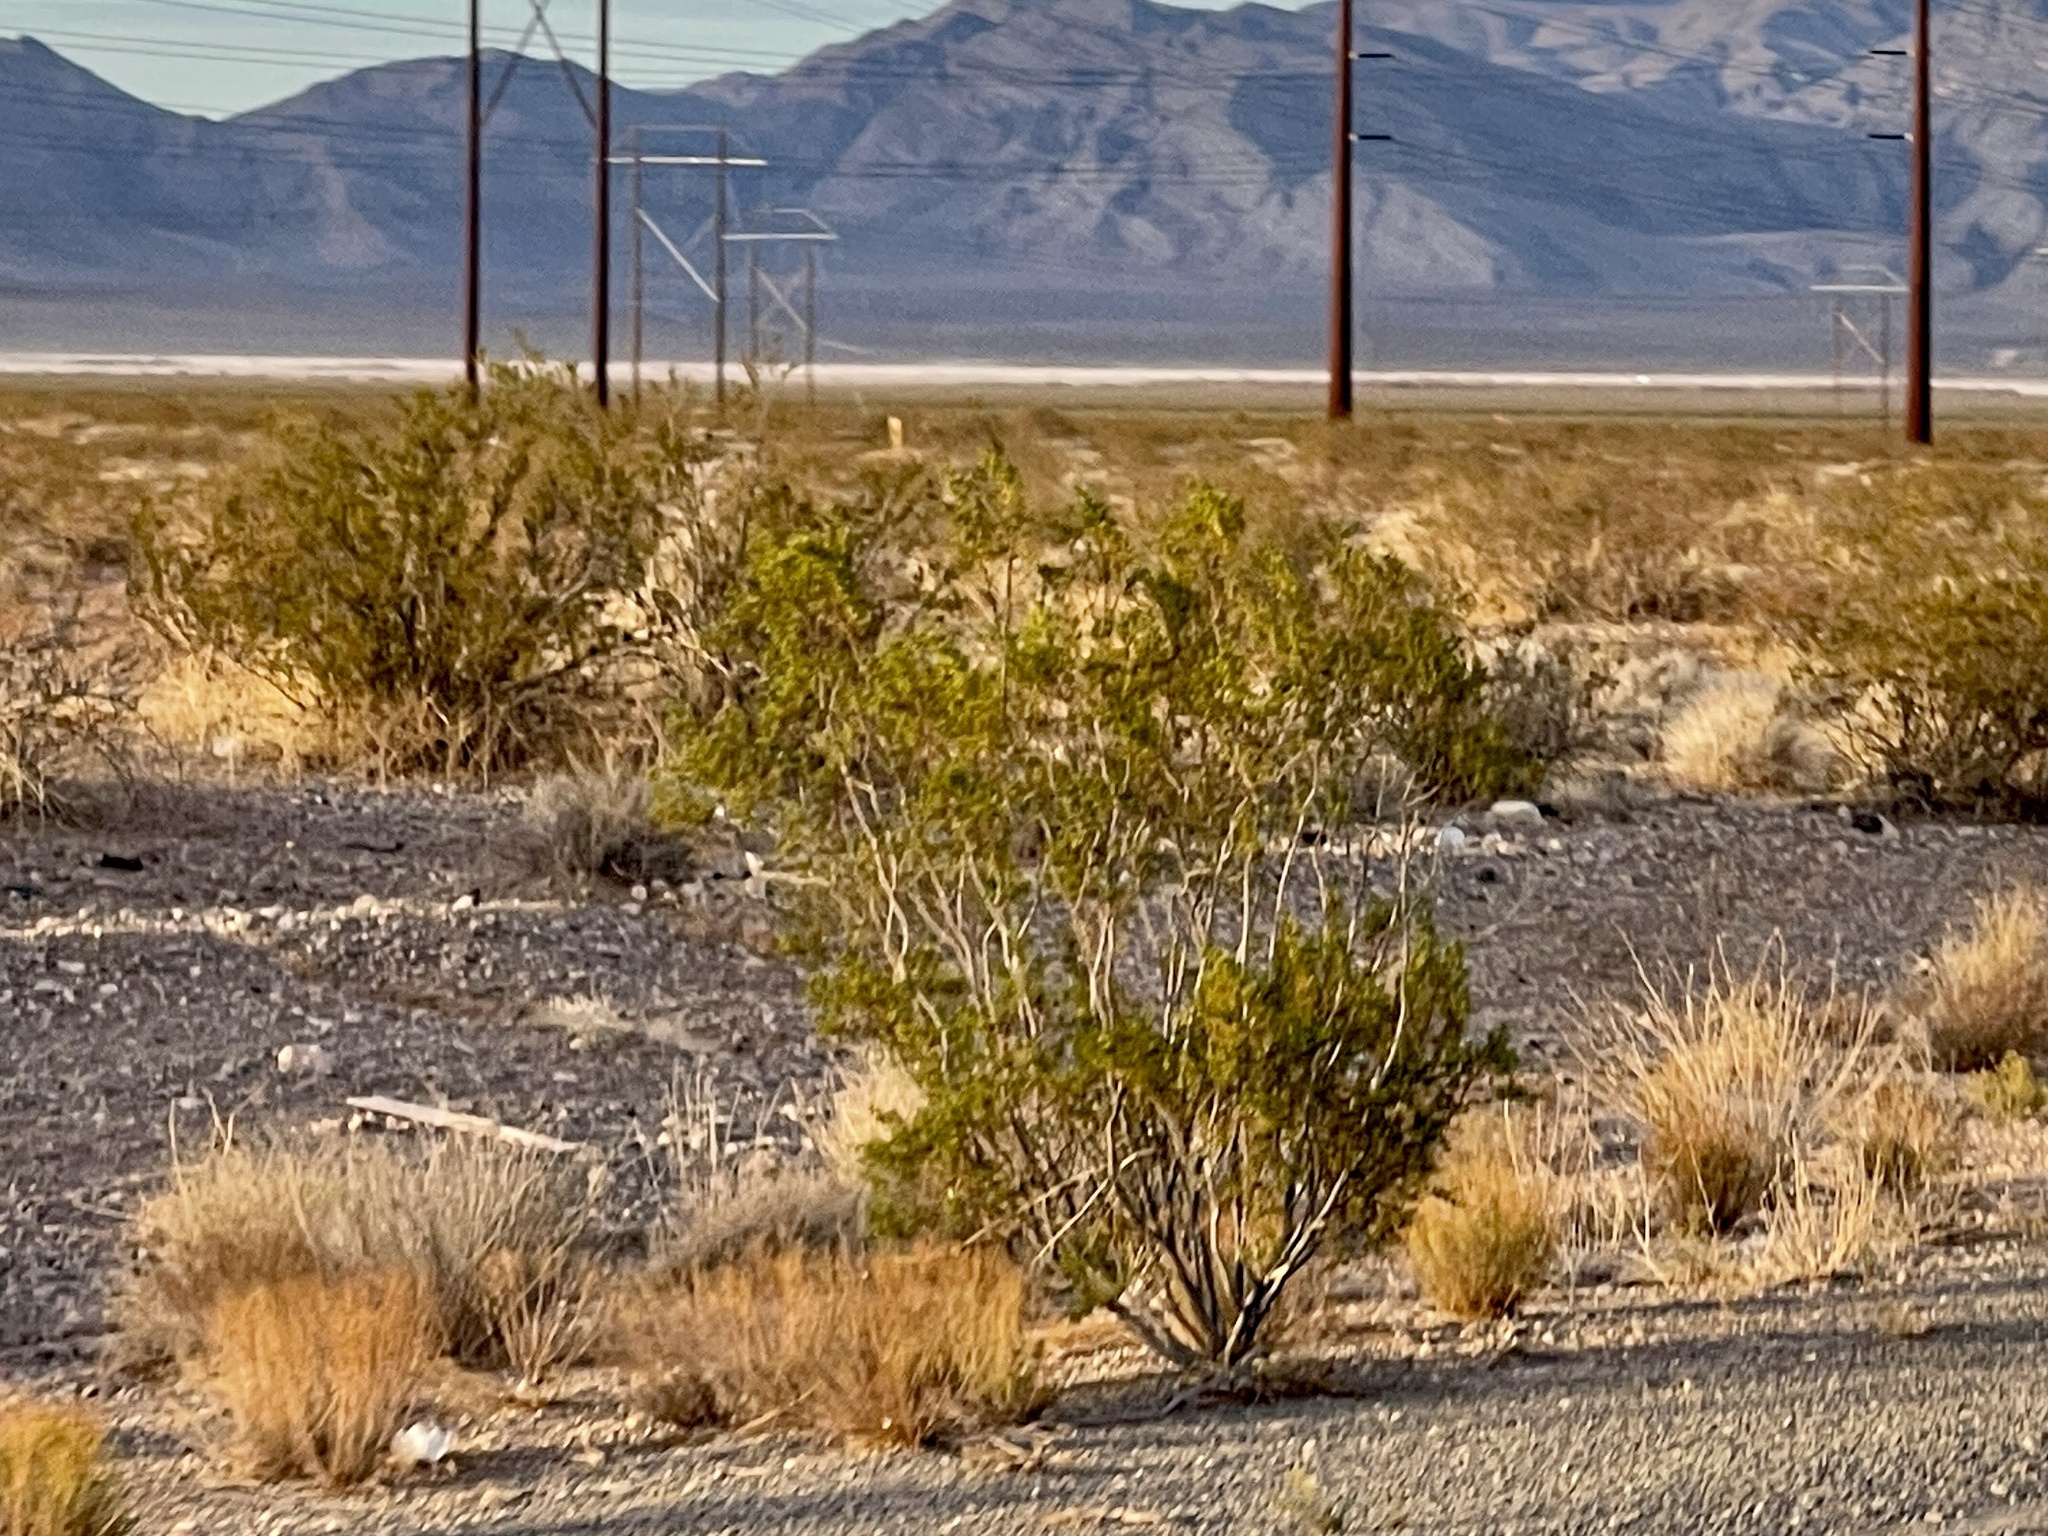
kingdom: Plantae
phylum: Tracheophyta
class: Magnoliopsida
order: Zygophyllales
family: Zygophyllaceae
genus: Larrea
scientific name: Larrea tridentata
